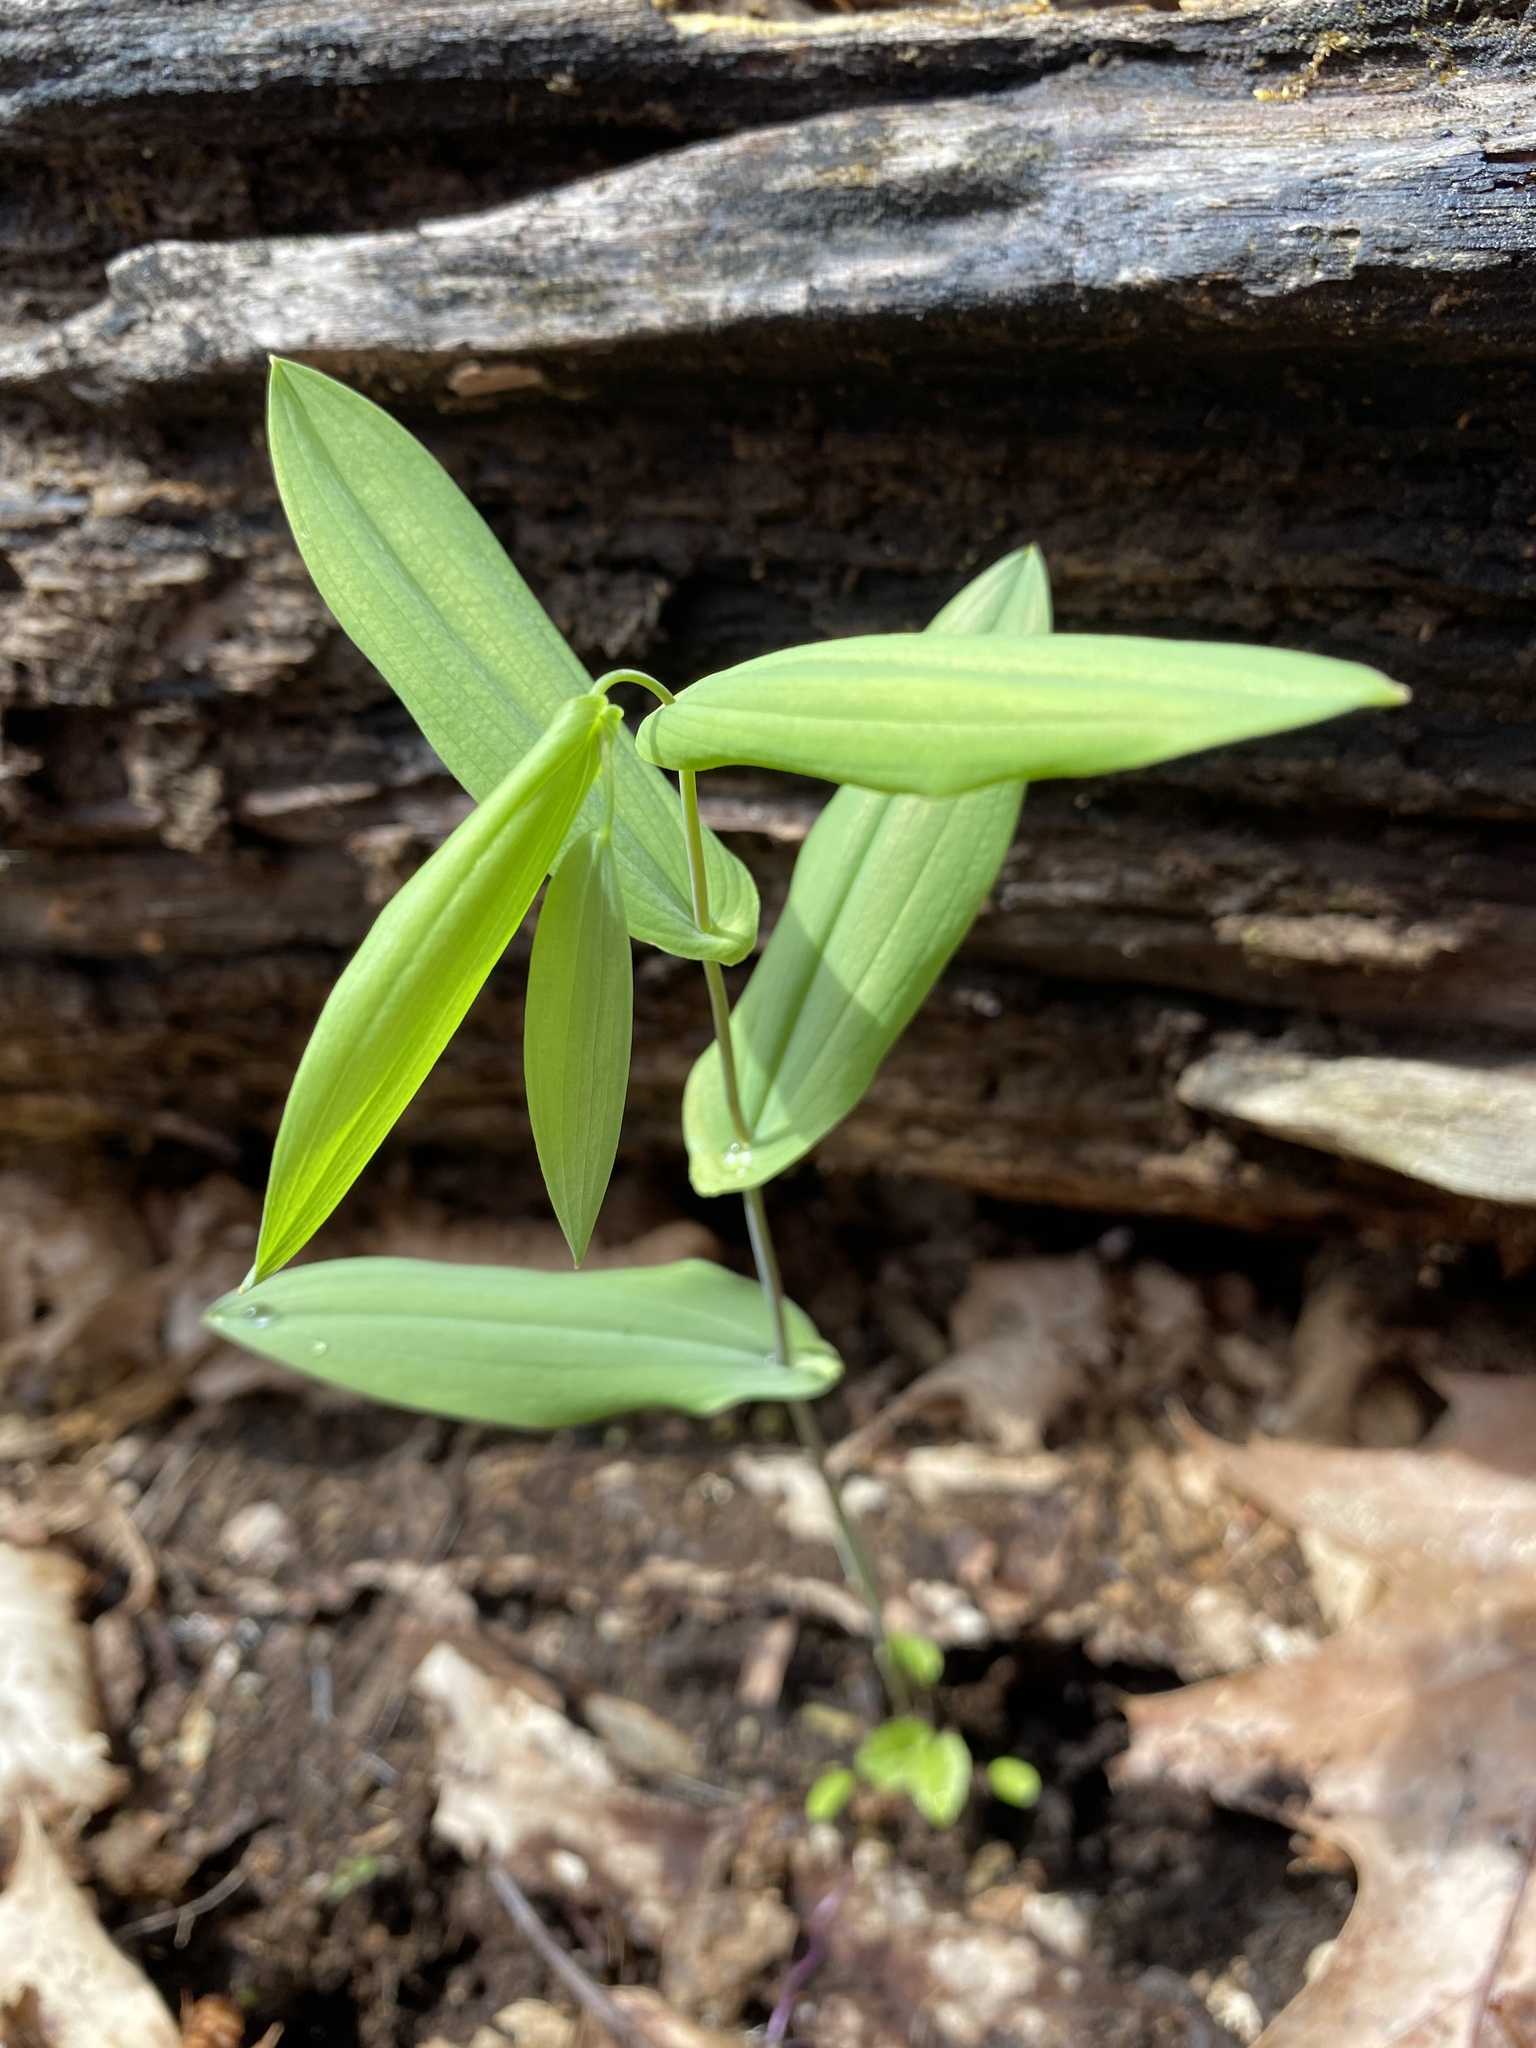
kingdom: Plantae
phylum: Tracheophyta
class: Liliopsida
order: Liliales
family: Colchicaceae
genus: Uvularia
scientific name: Uvularia perfoliata
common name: Perfoliate bellwort
